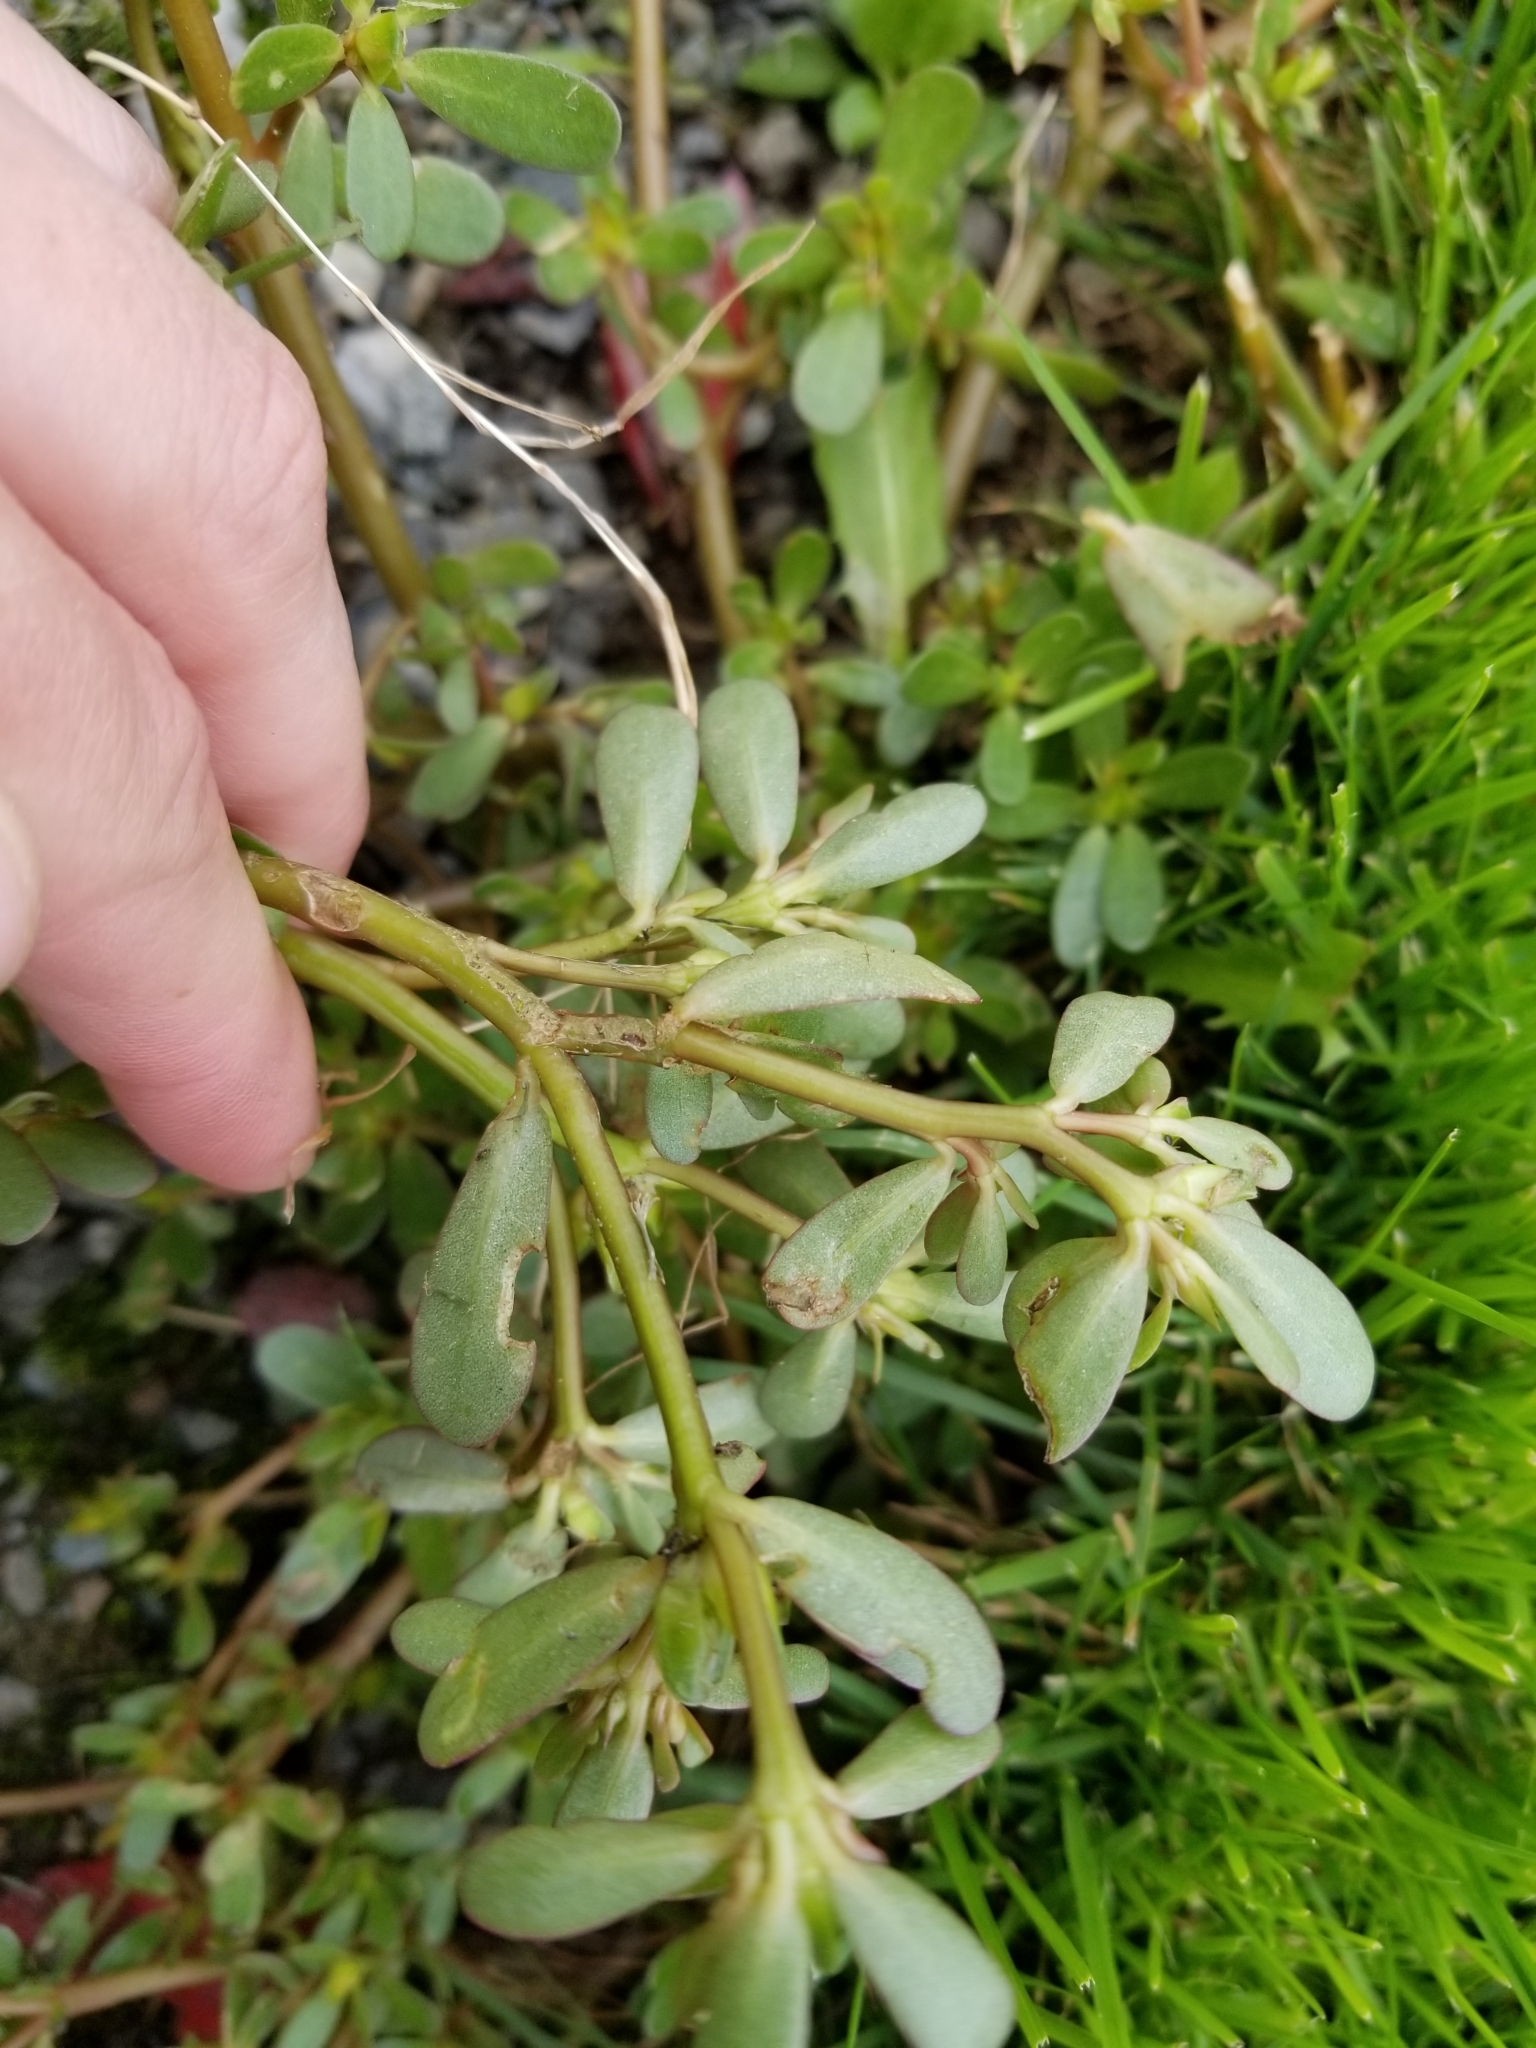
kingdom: Plantae
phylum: Tracheophyta
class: Magnoliopsida
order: Caryophyllales
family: Portulacaceae
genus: Portulaca
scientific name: Portulaca oleracea
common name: Common purslane
